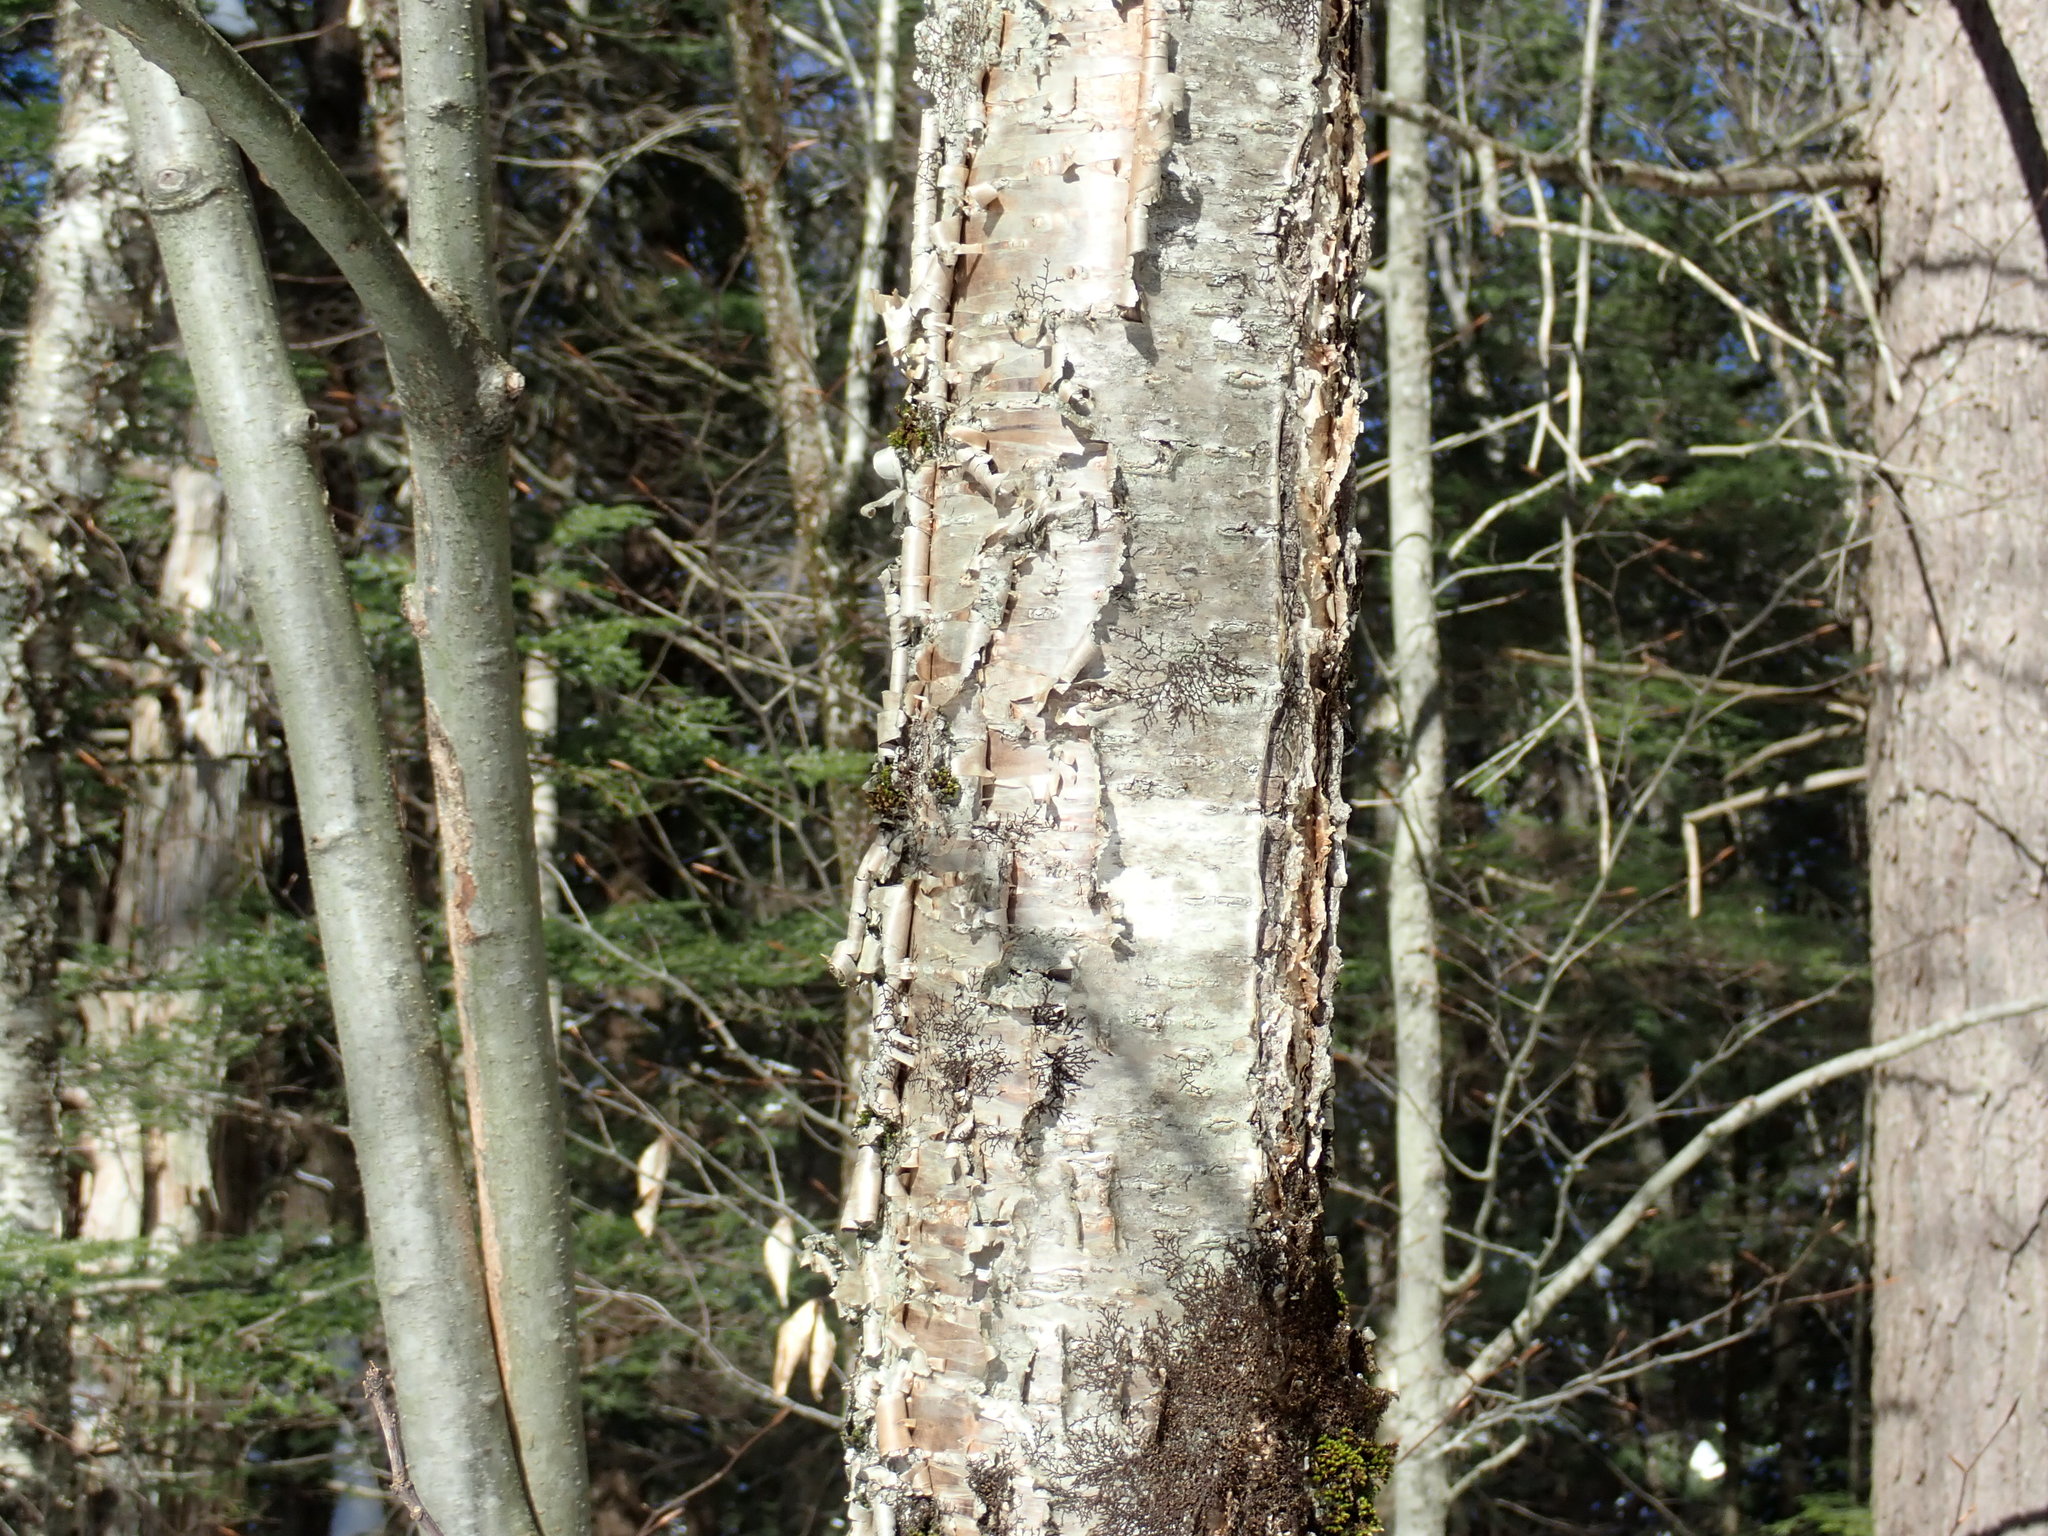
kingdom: Plantae
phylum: Tracheophyta
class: Magnoliopsida
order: Fagales
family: Betulaceae
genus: Betula
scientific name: Betula alleghaniensis
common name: Yellow birch
